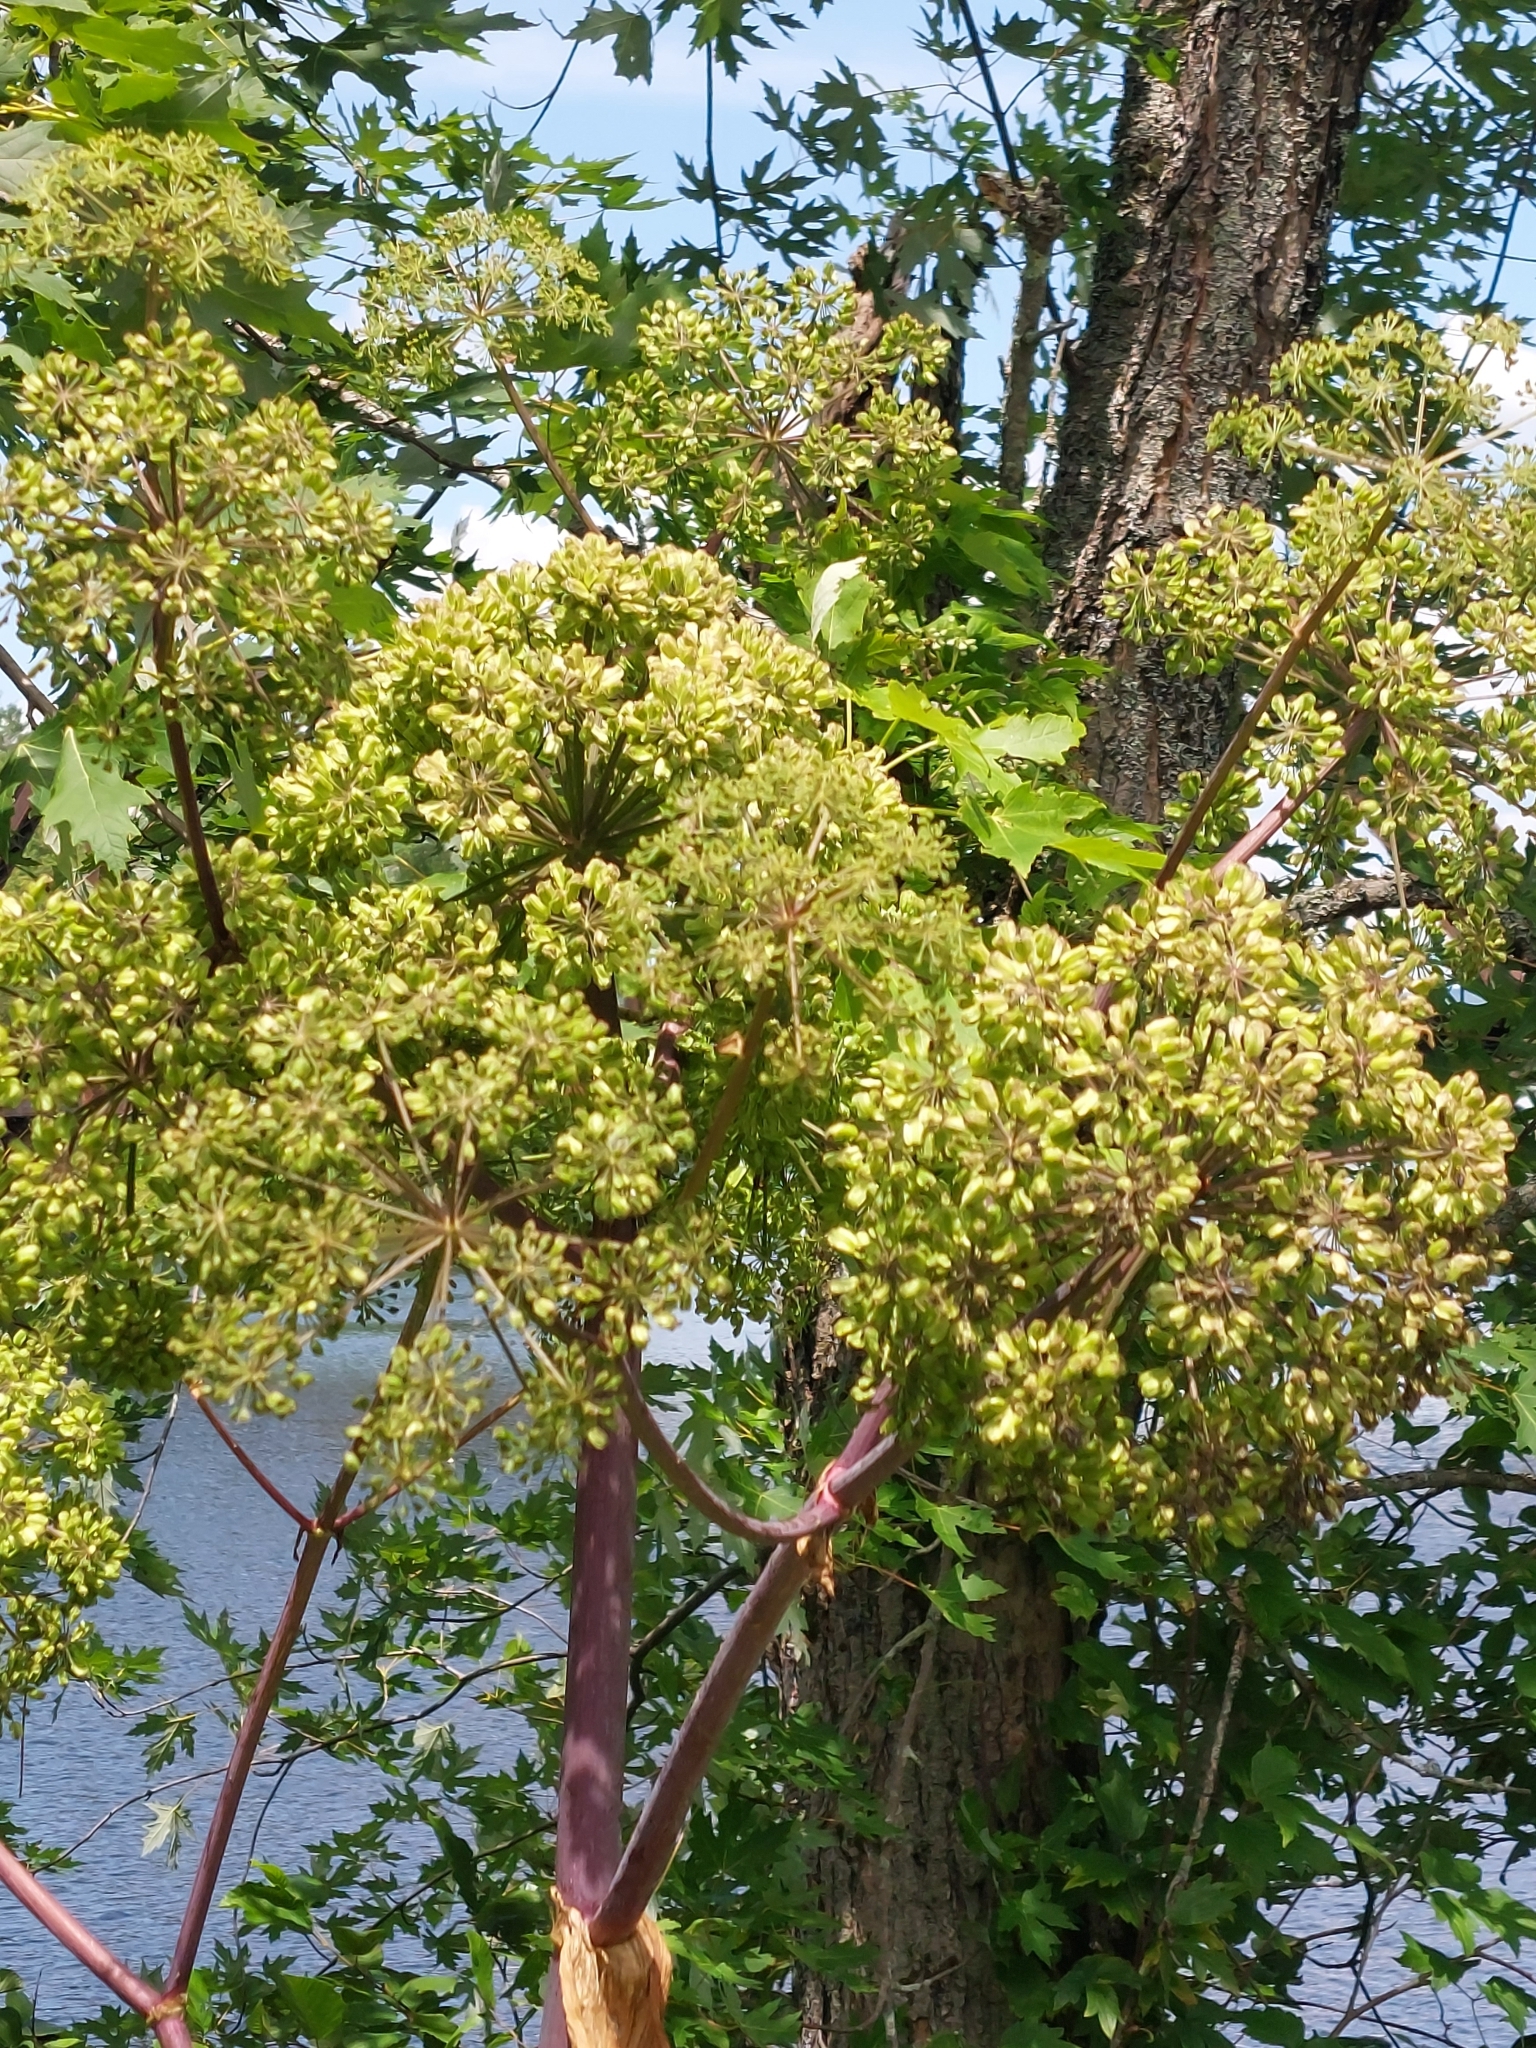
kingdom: Plantae
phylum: Tracheophyta
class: Magnoliopsida
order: Apiales
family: Apiaceae
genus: Angelica
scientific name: Angelica atropurpurea
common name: Great angelica
